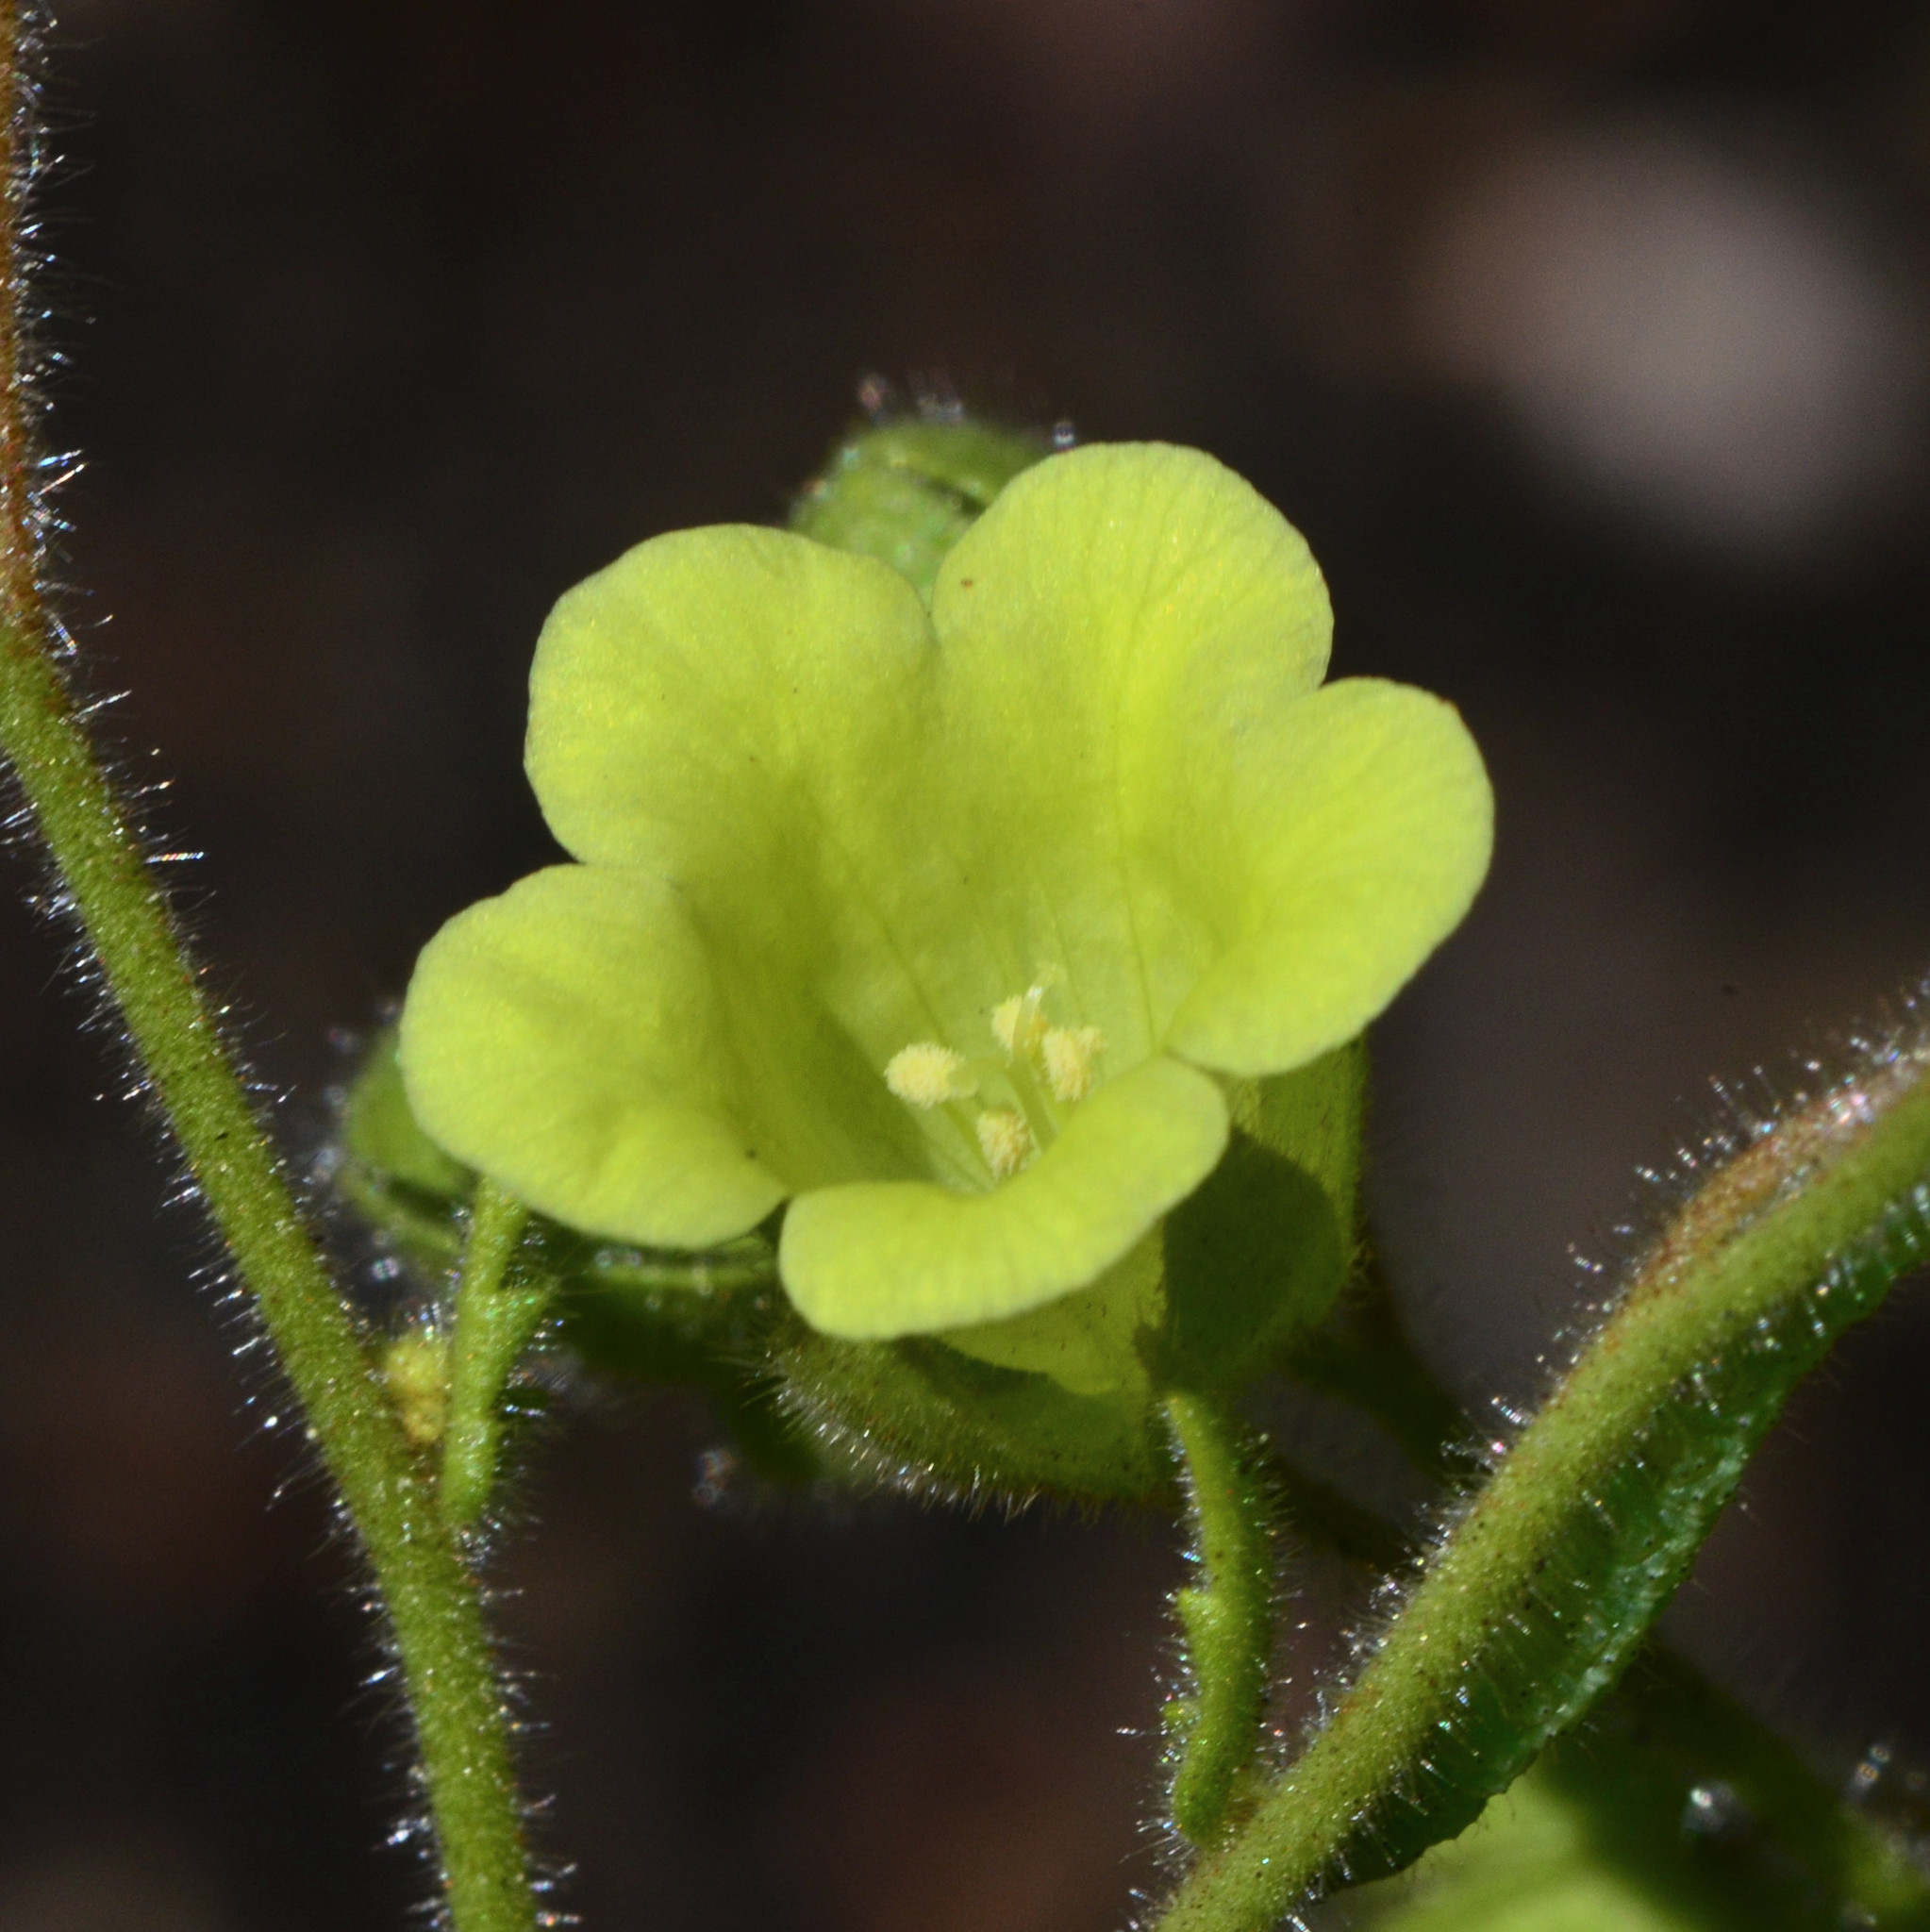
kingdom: Plantae
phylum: Tracheophyta
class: Magnoliopsida
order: Boraginales
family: Hydrophyllaceae
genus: Emmenanthe
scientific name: Emmenanthe penduliflora
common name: Whispering-bells
